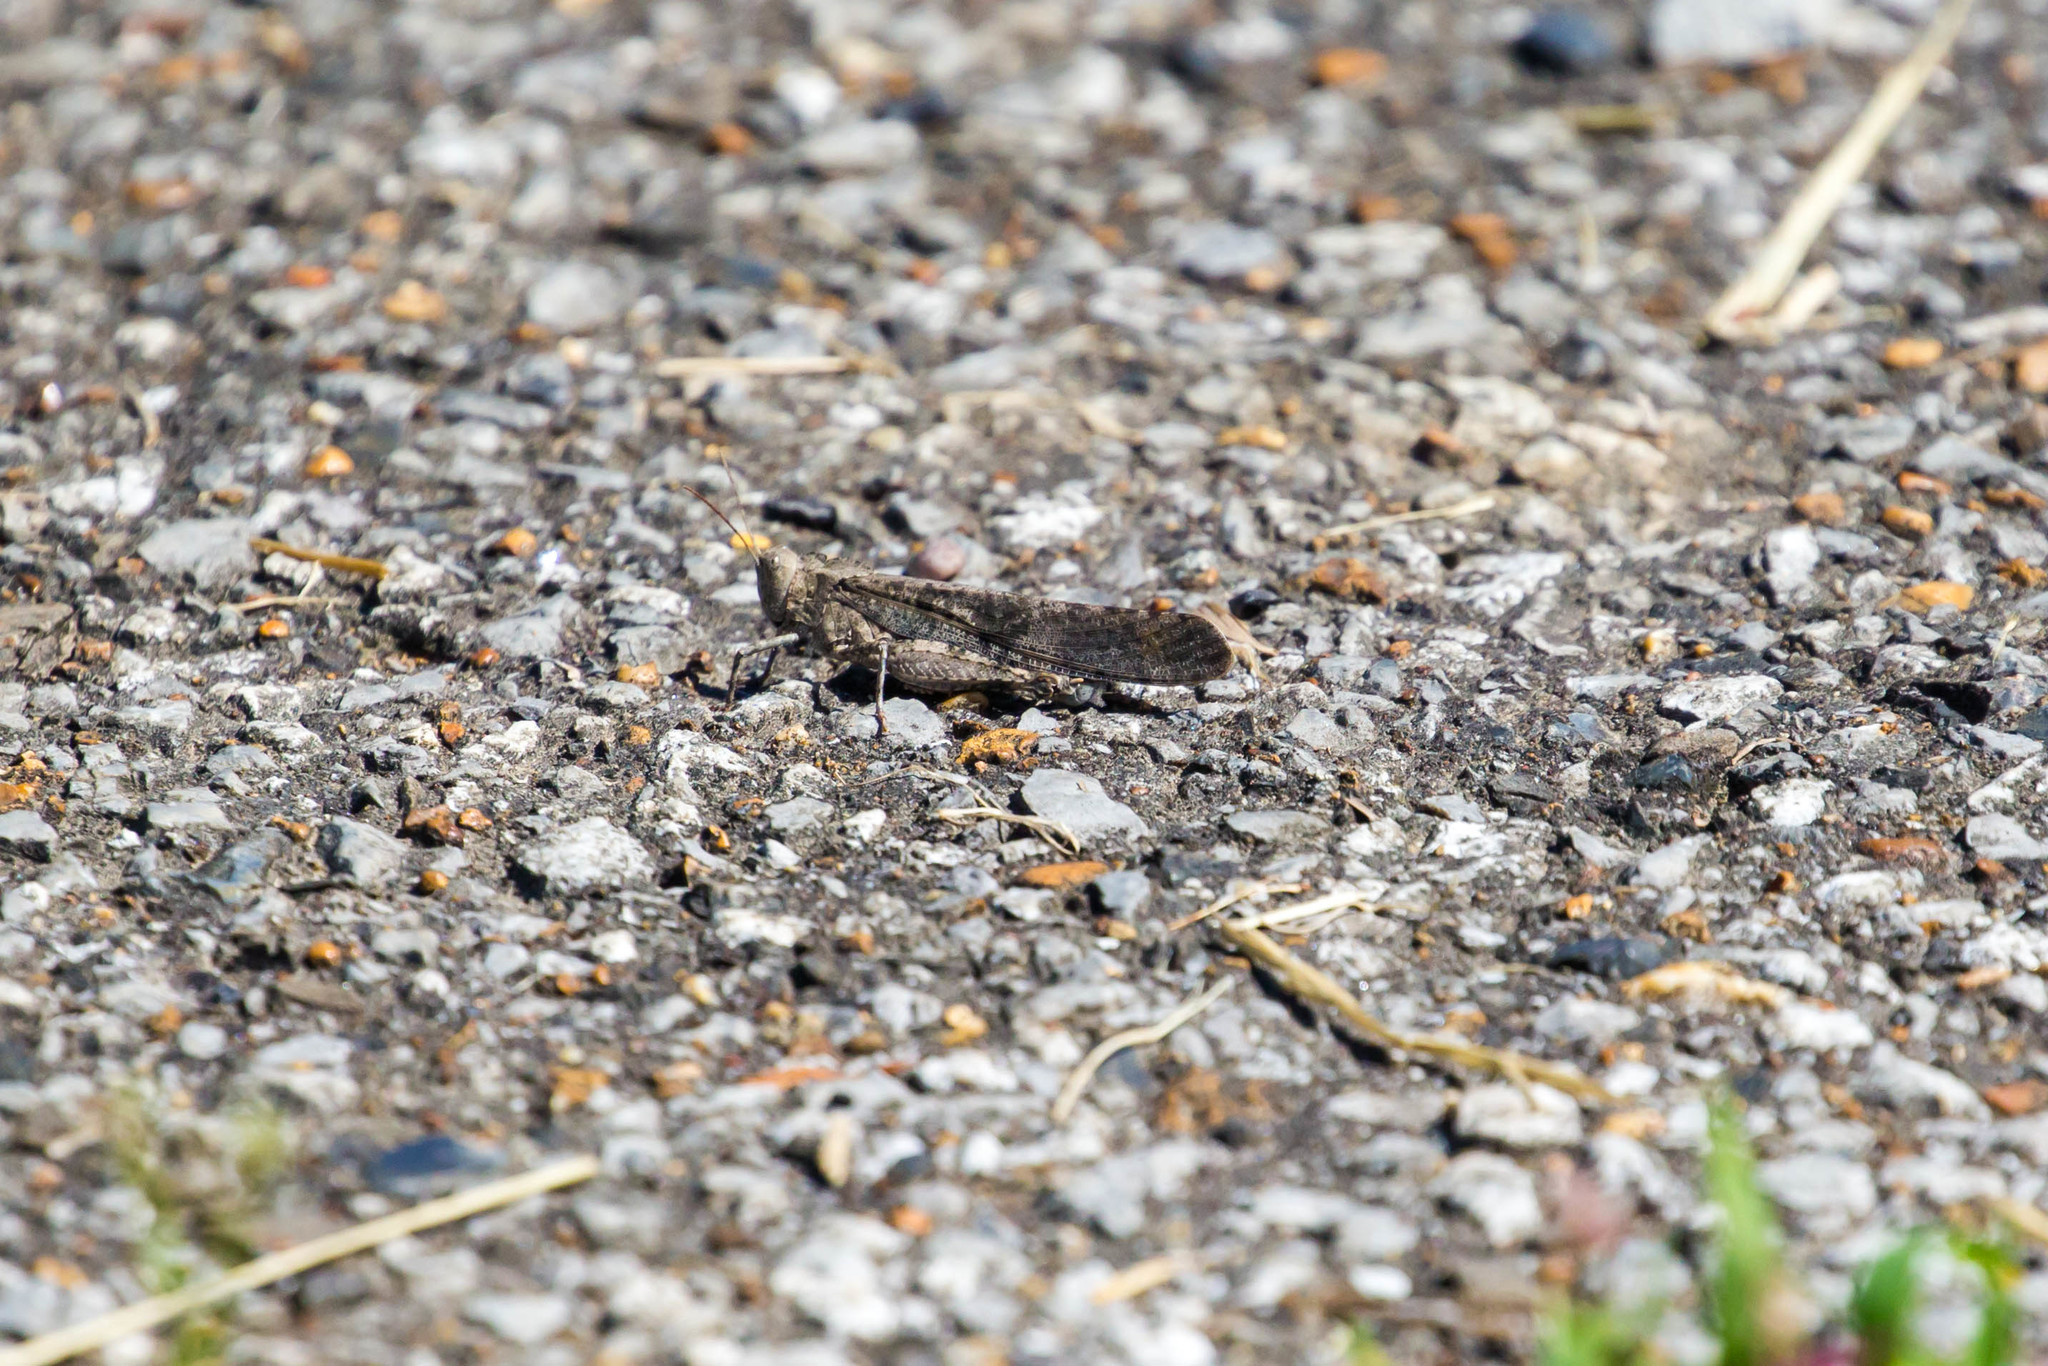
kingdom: Animalia
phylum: Arthropoda
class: Insecta
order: Orthoptera
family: Acrididae
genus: Dissosteira
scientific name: Dissosteira carolina
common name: Carolina grasshopper
